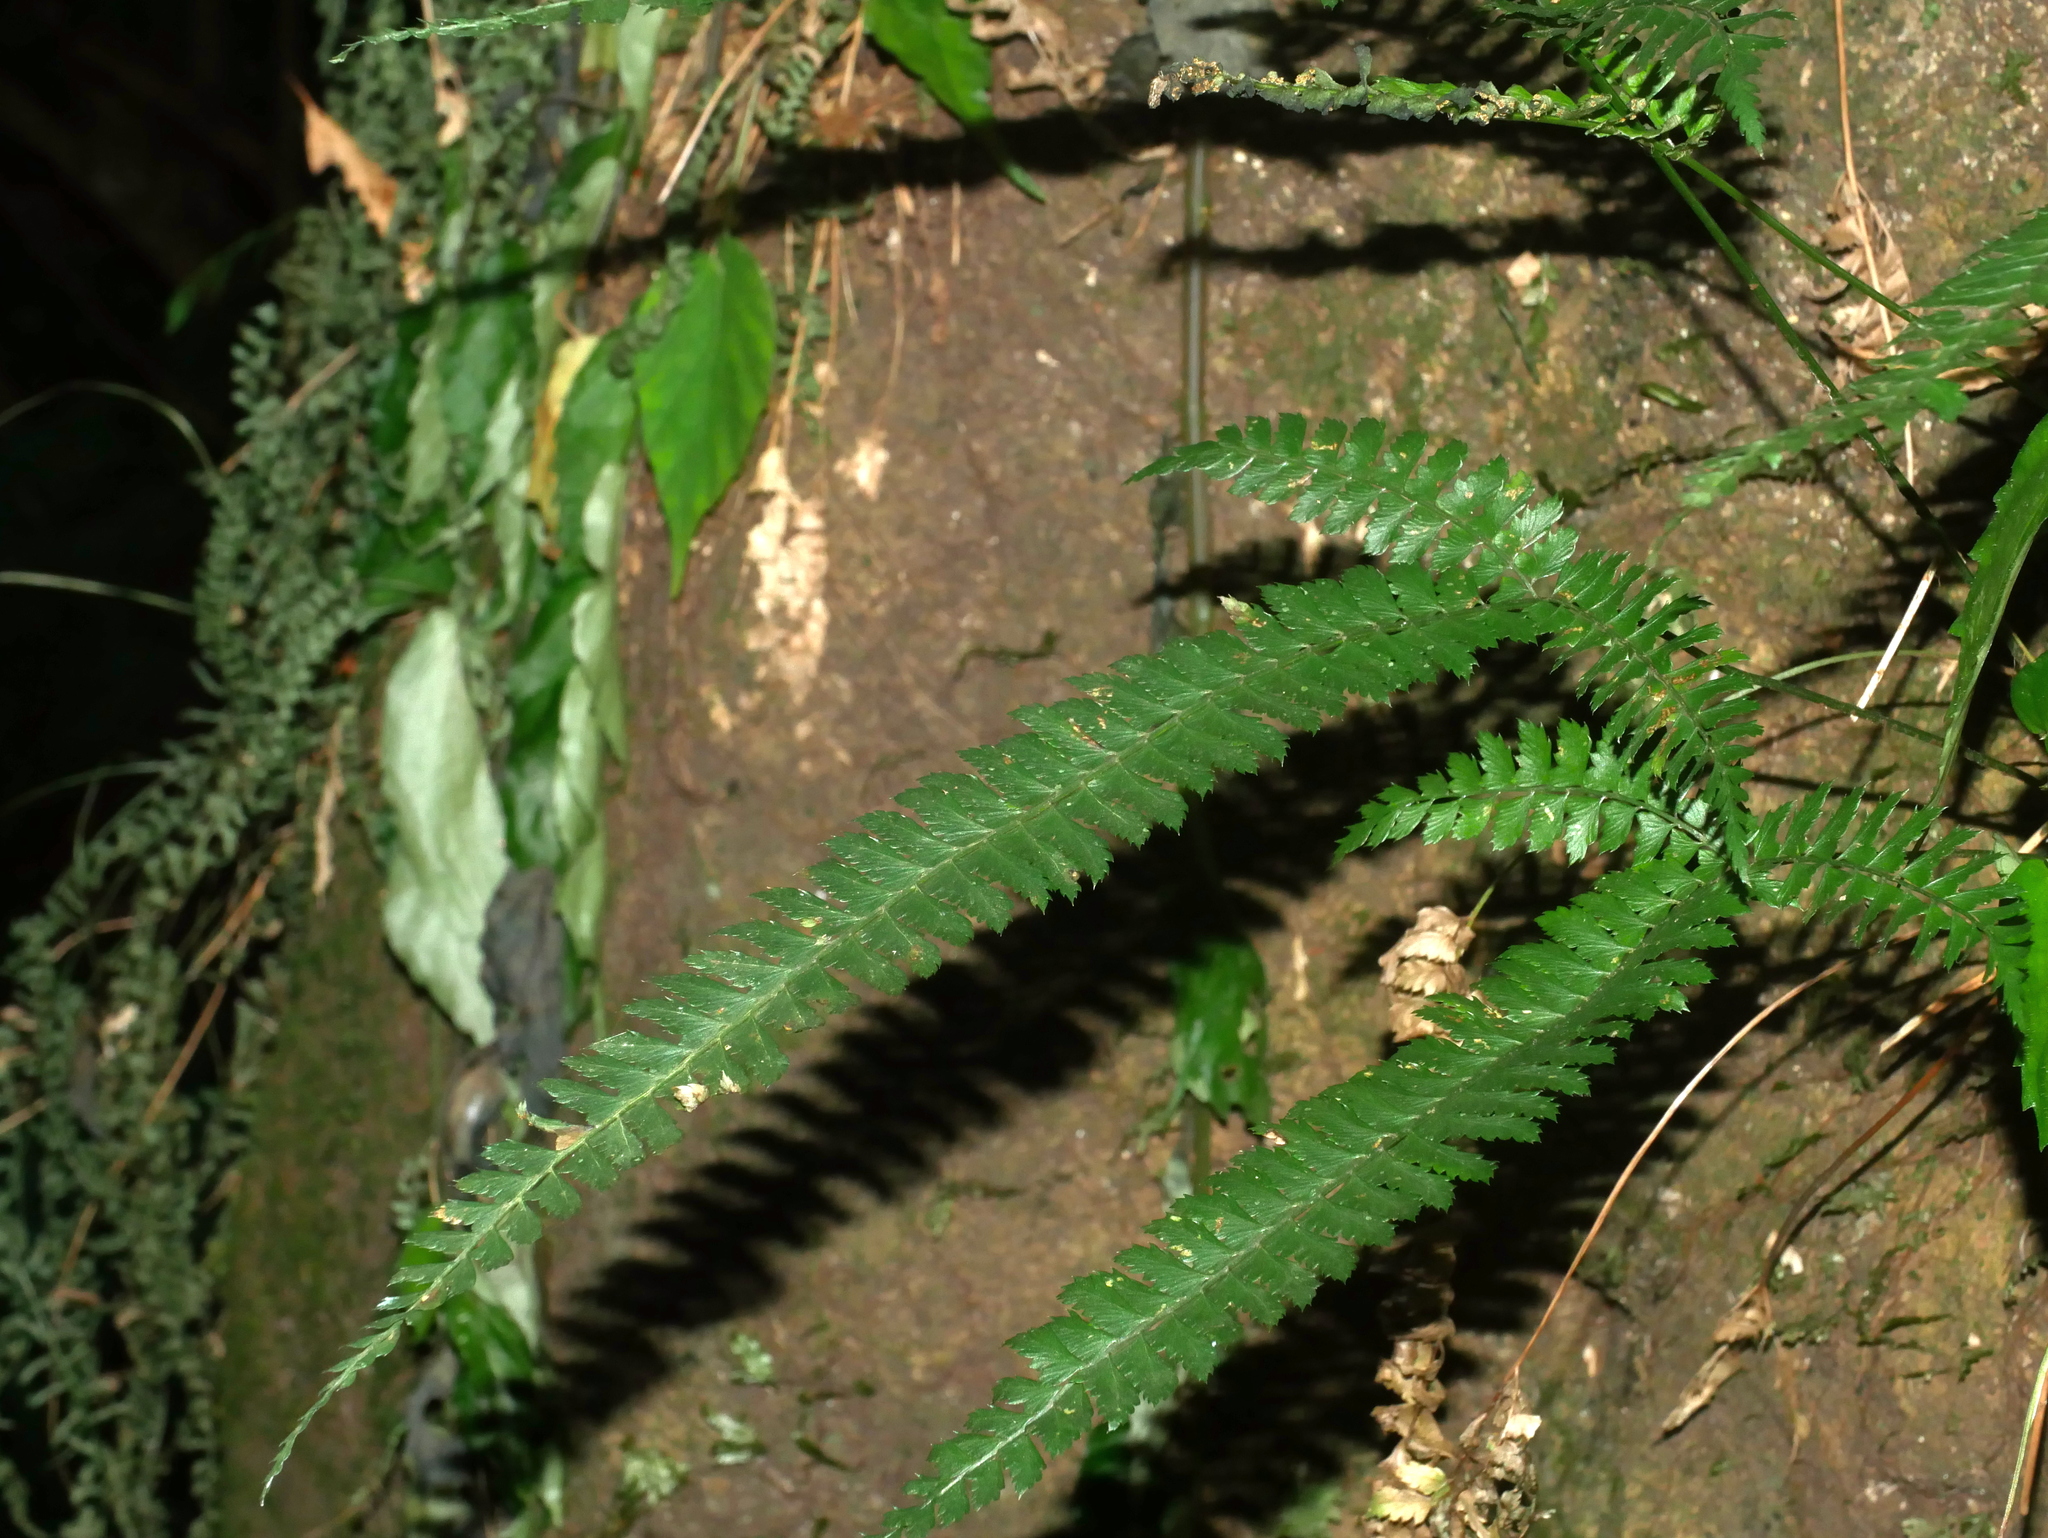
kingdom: Plantae
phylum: Tracheophyta
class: Polypodiopsida
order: Polypodiales
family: Dryopteridaceae
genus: Polystichum
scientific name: Polystichum hancockii
